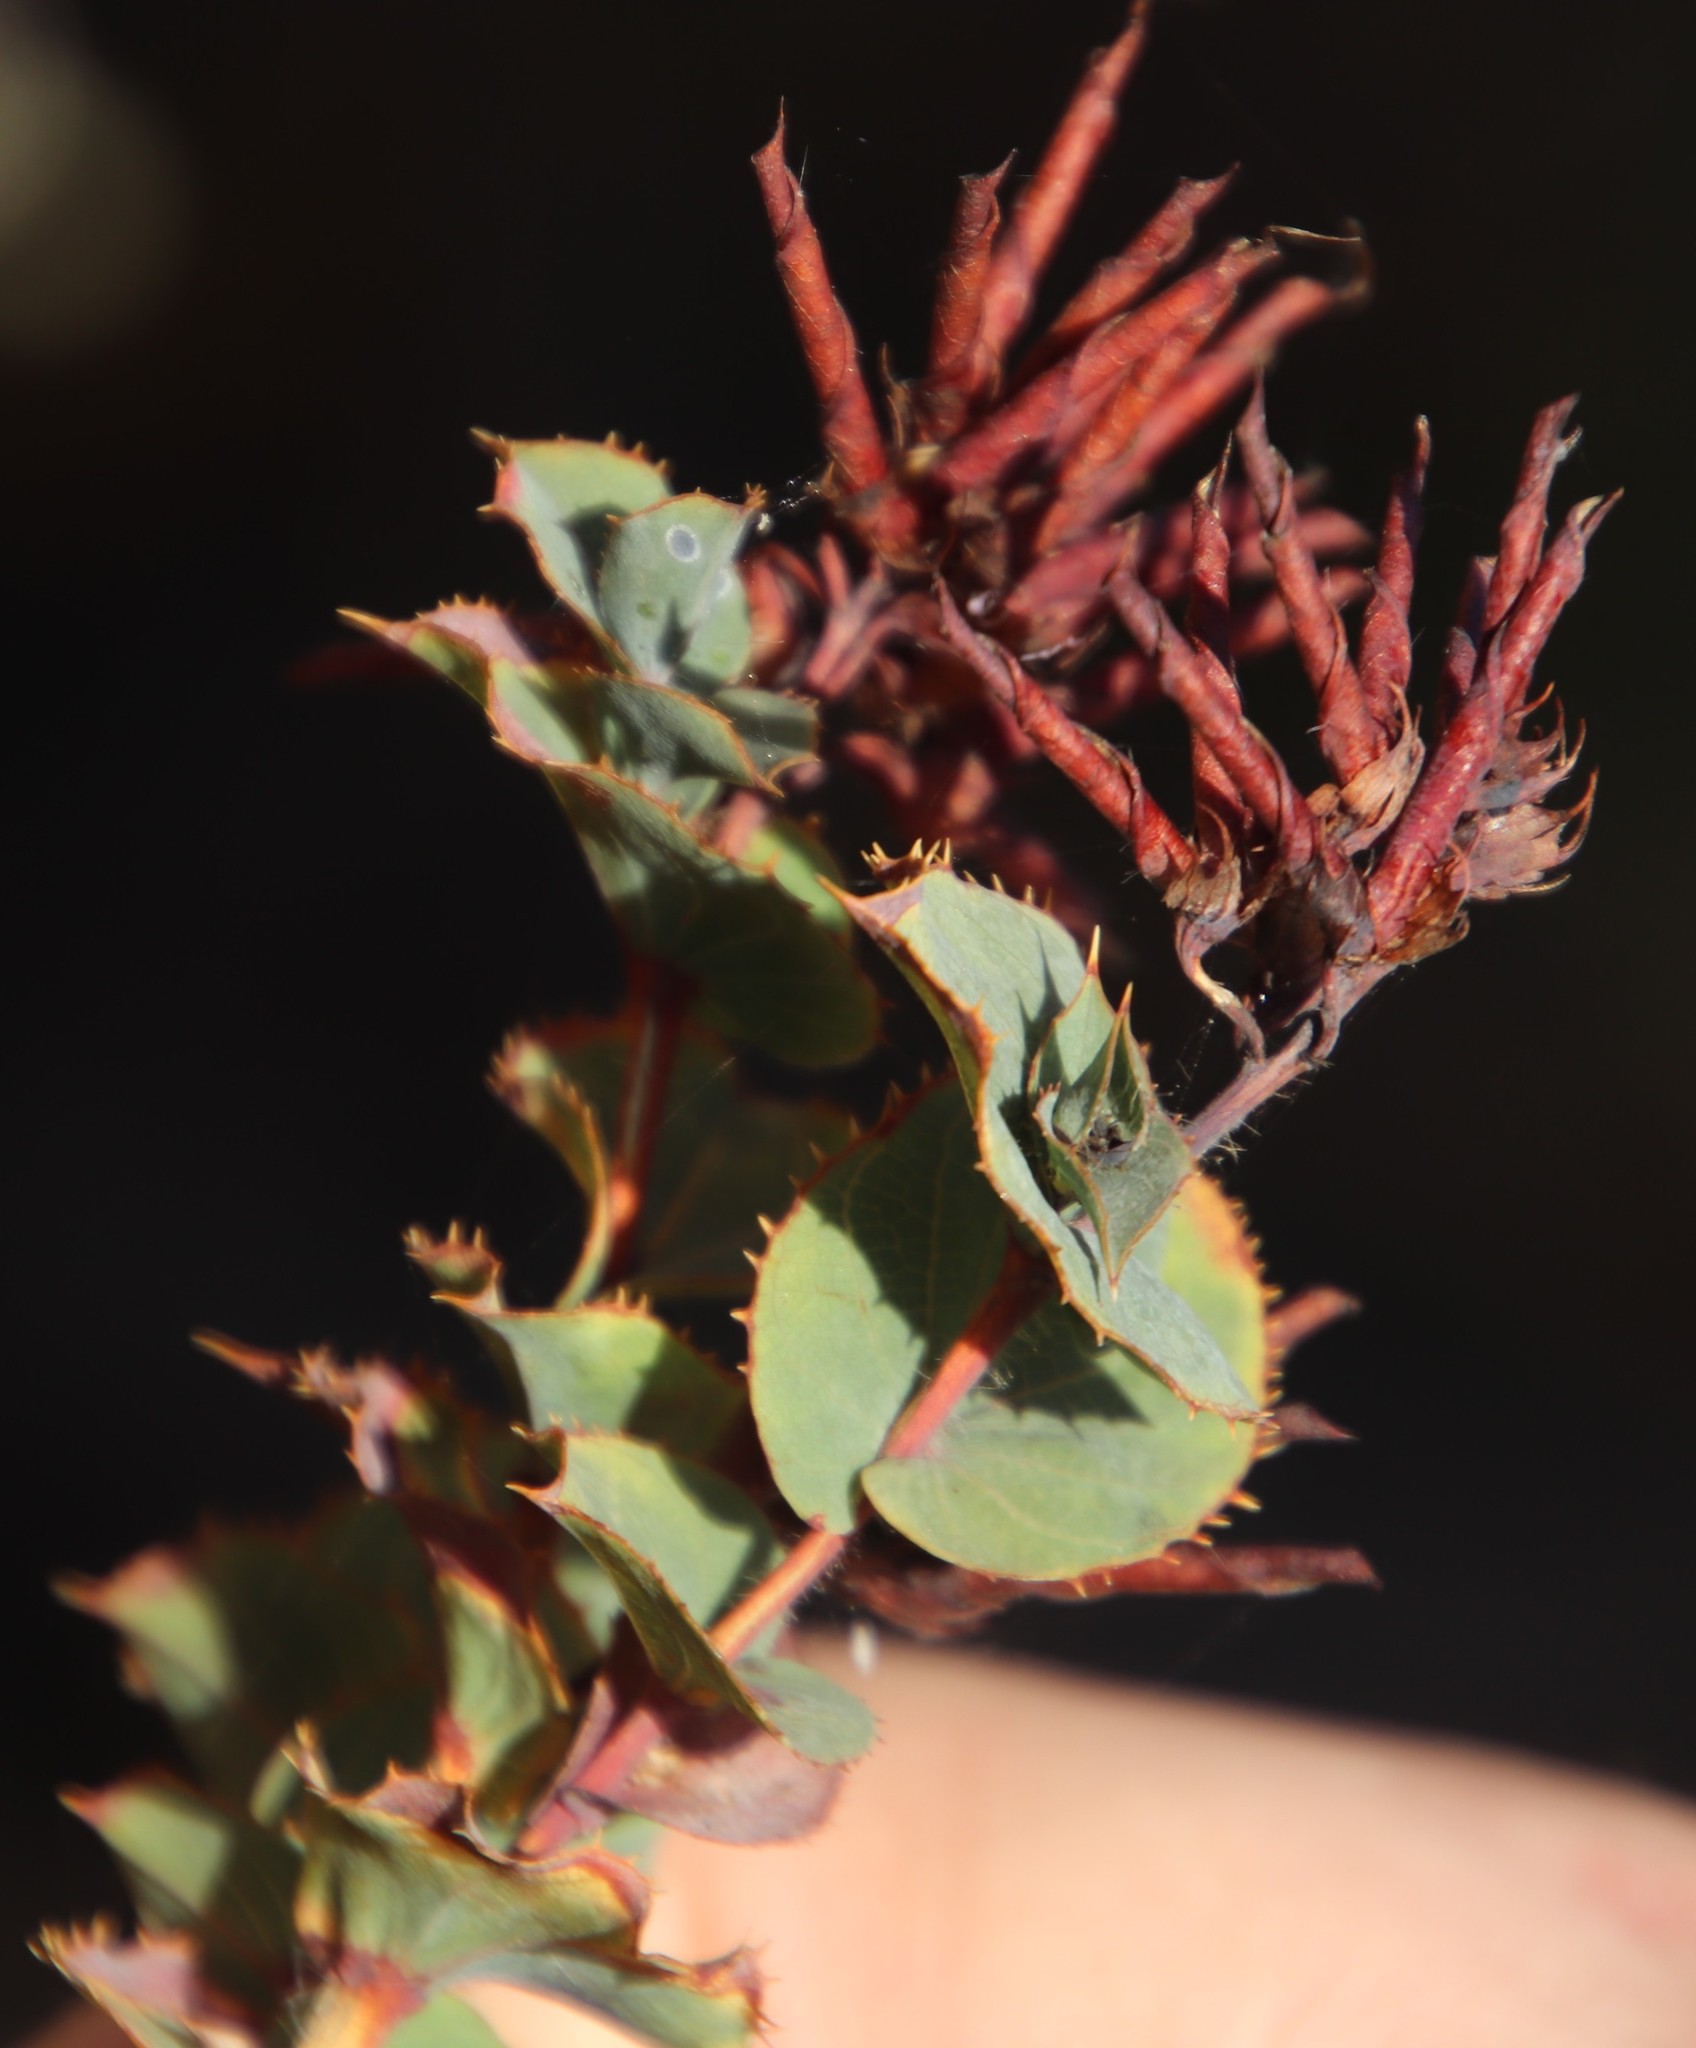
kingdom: Plantae
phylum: Tracheophyta
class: Magnoliopsida
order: Fabales
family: Fabaceae
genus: Aspalathus
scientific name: Aspalathus perfoliata
